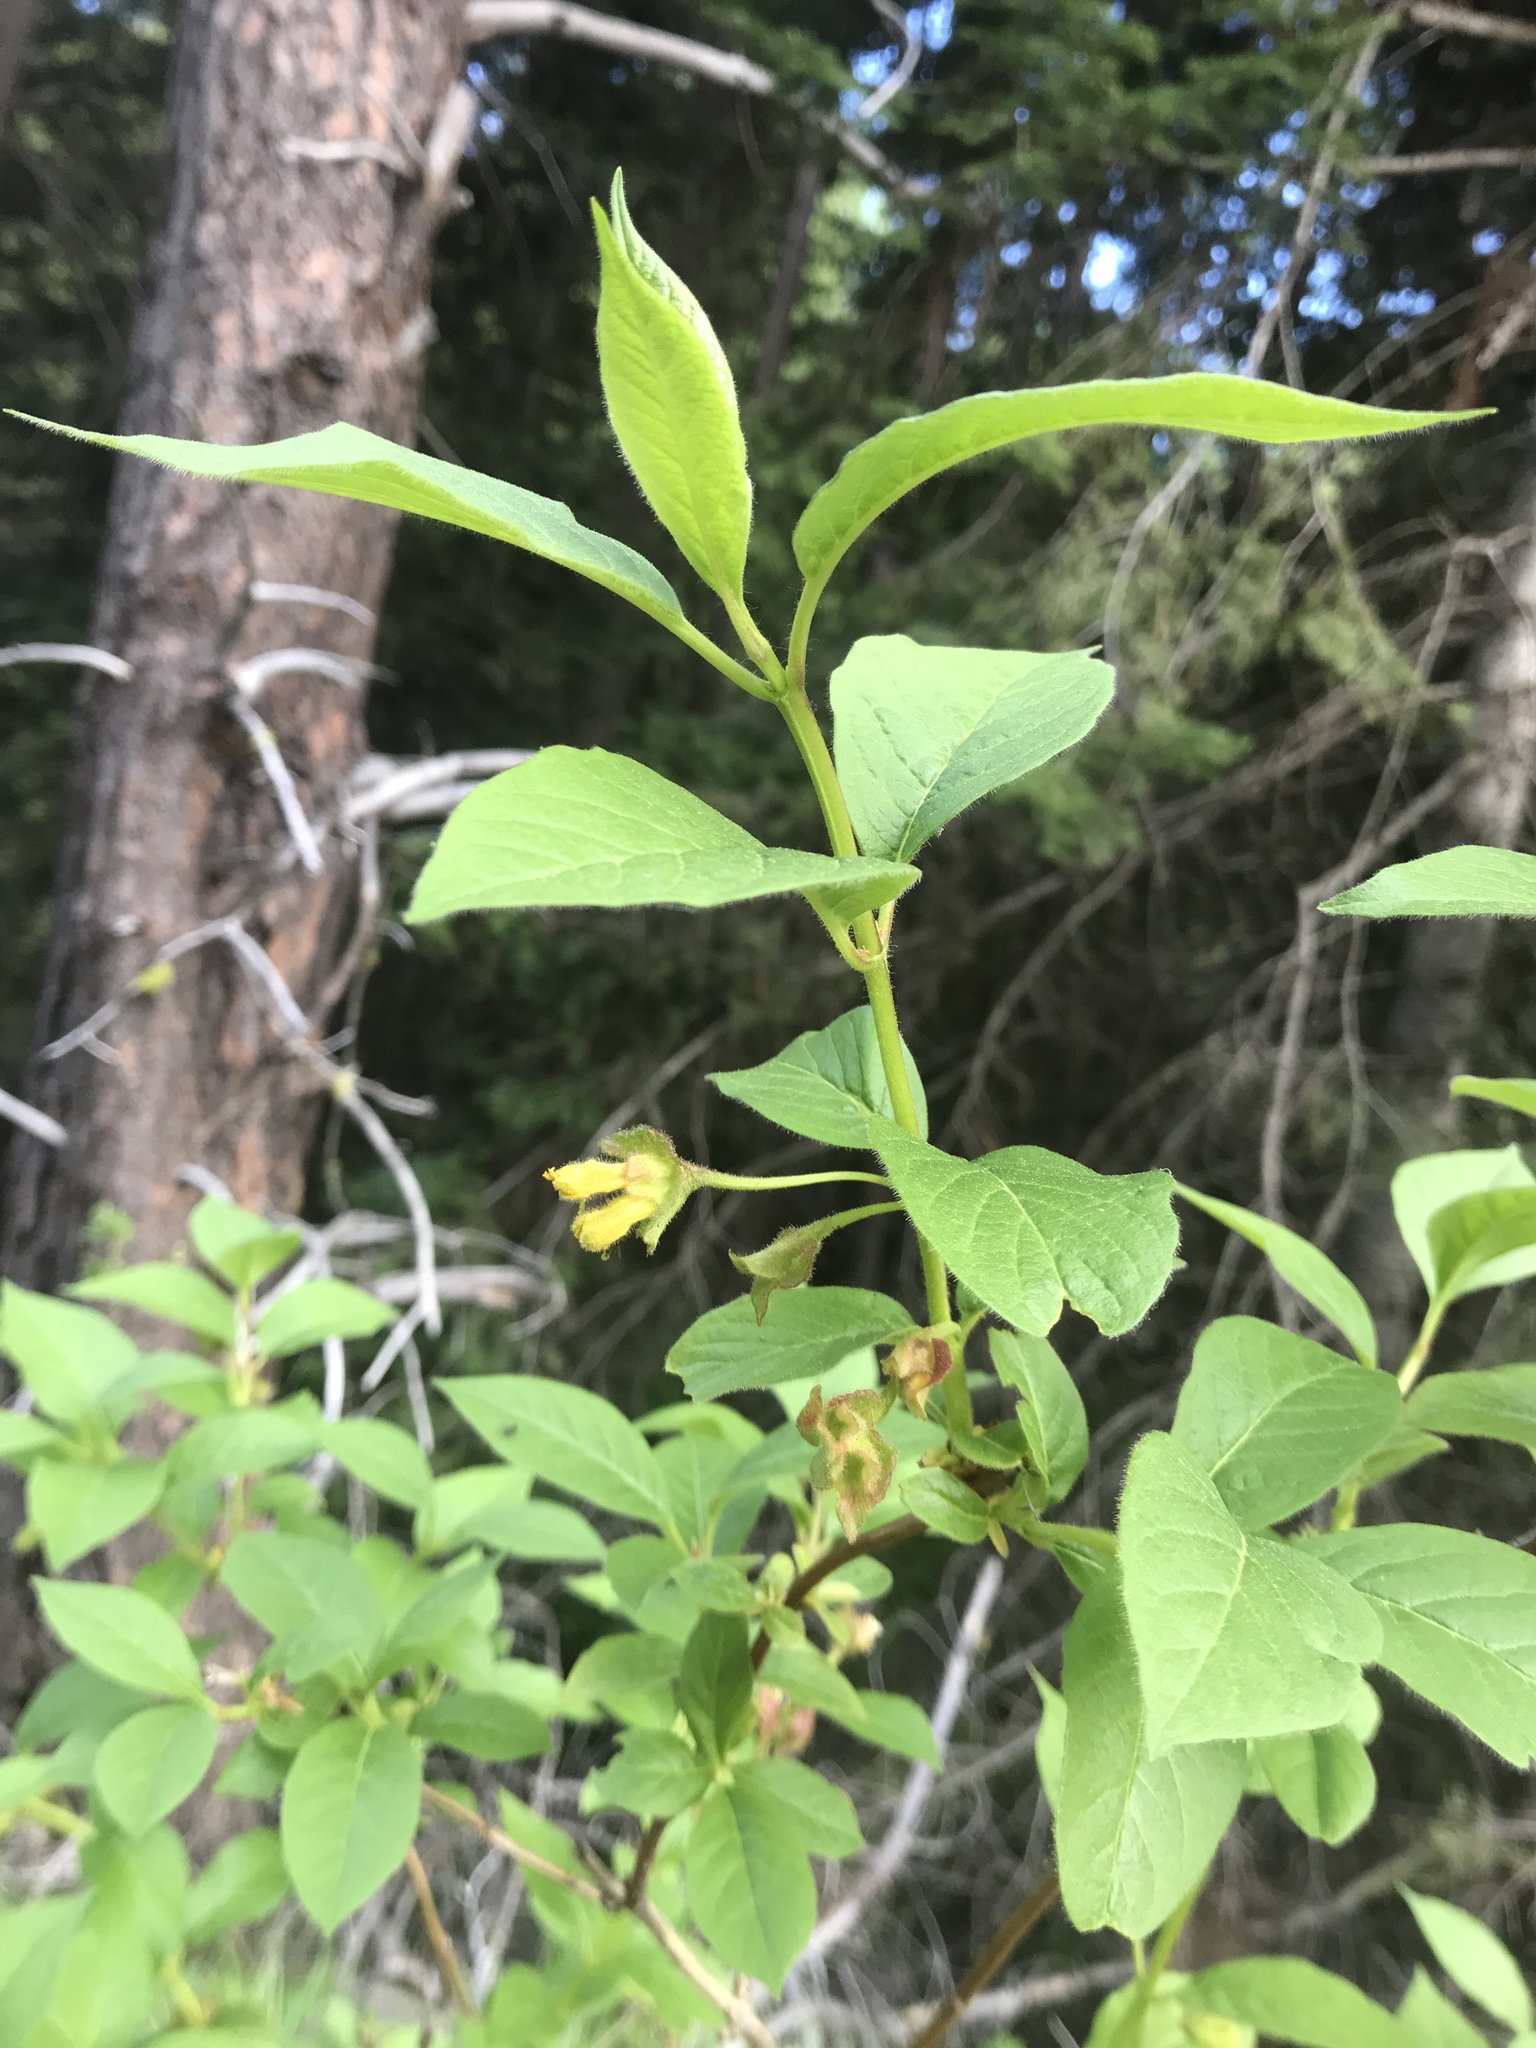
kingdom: Plantae
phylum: Tracheophyta
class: Magnoliopsida
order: Dipsacales
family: Caprifoliaceae
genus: Lonicera
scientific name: Lonicera involucrata
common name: Californian honeysuckle
